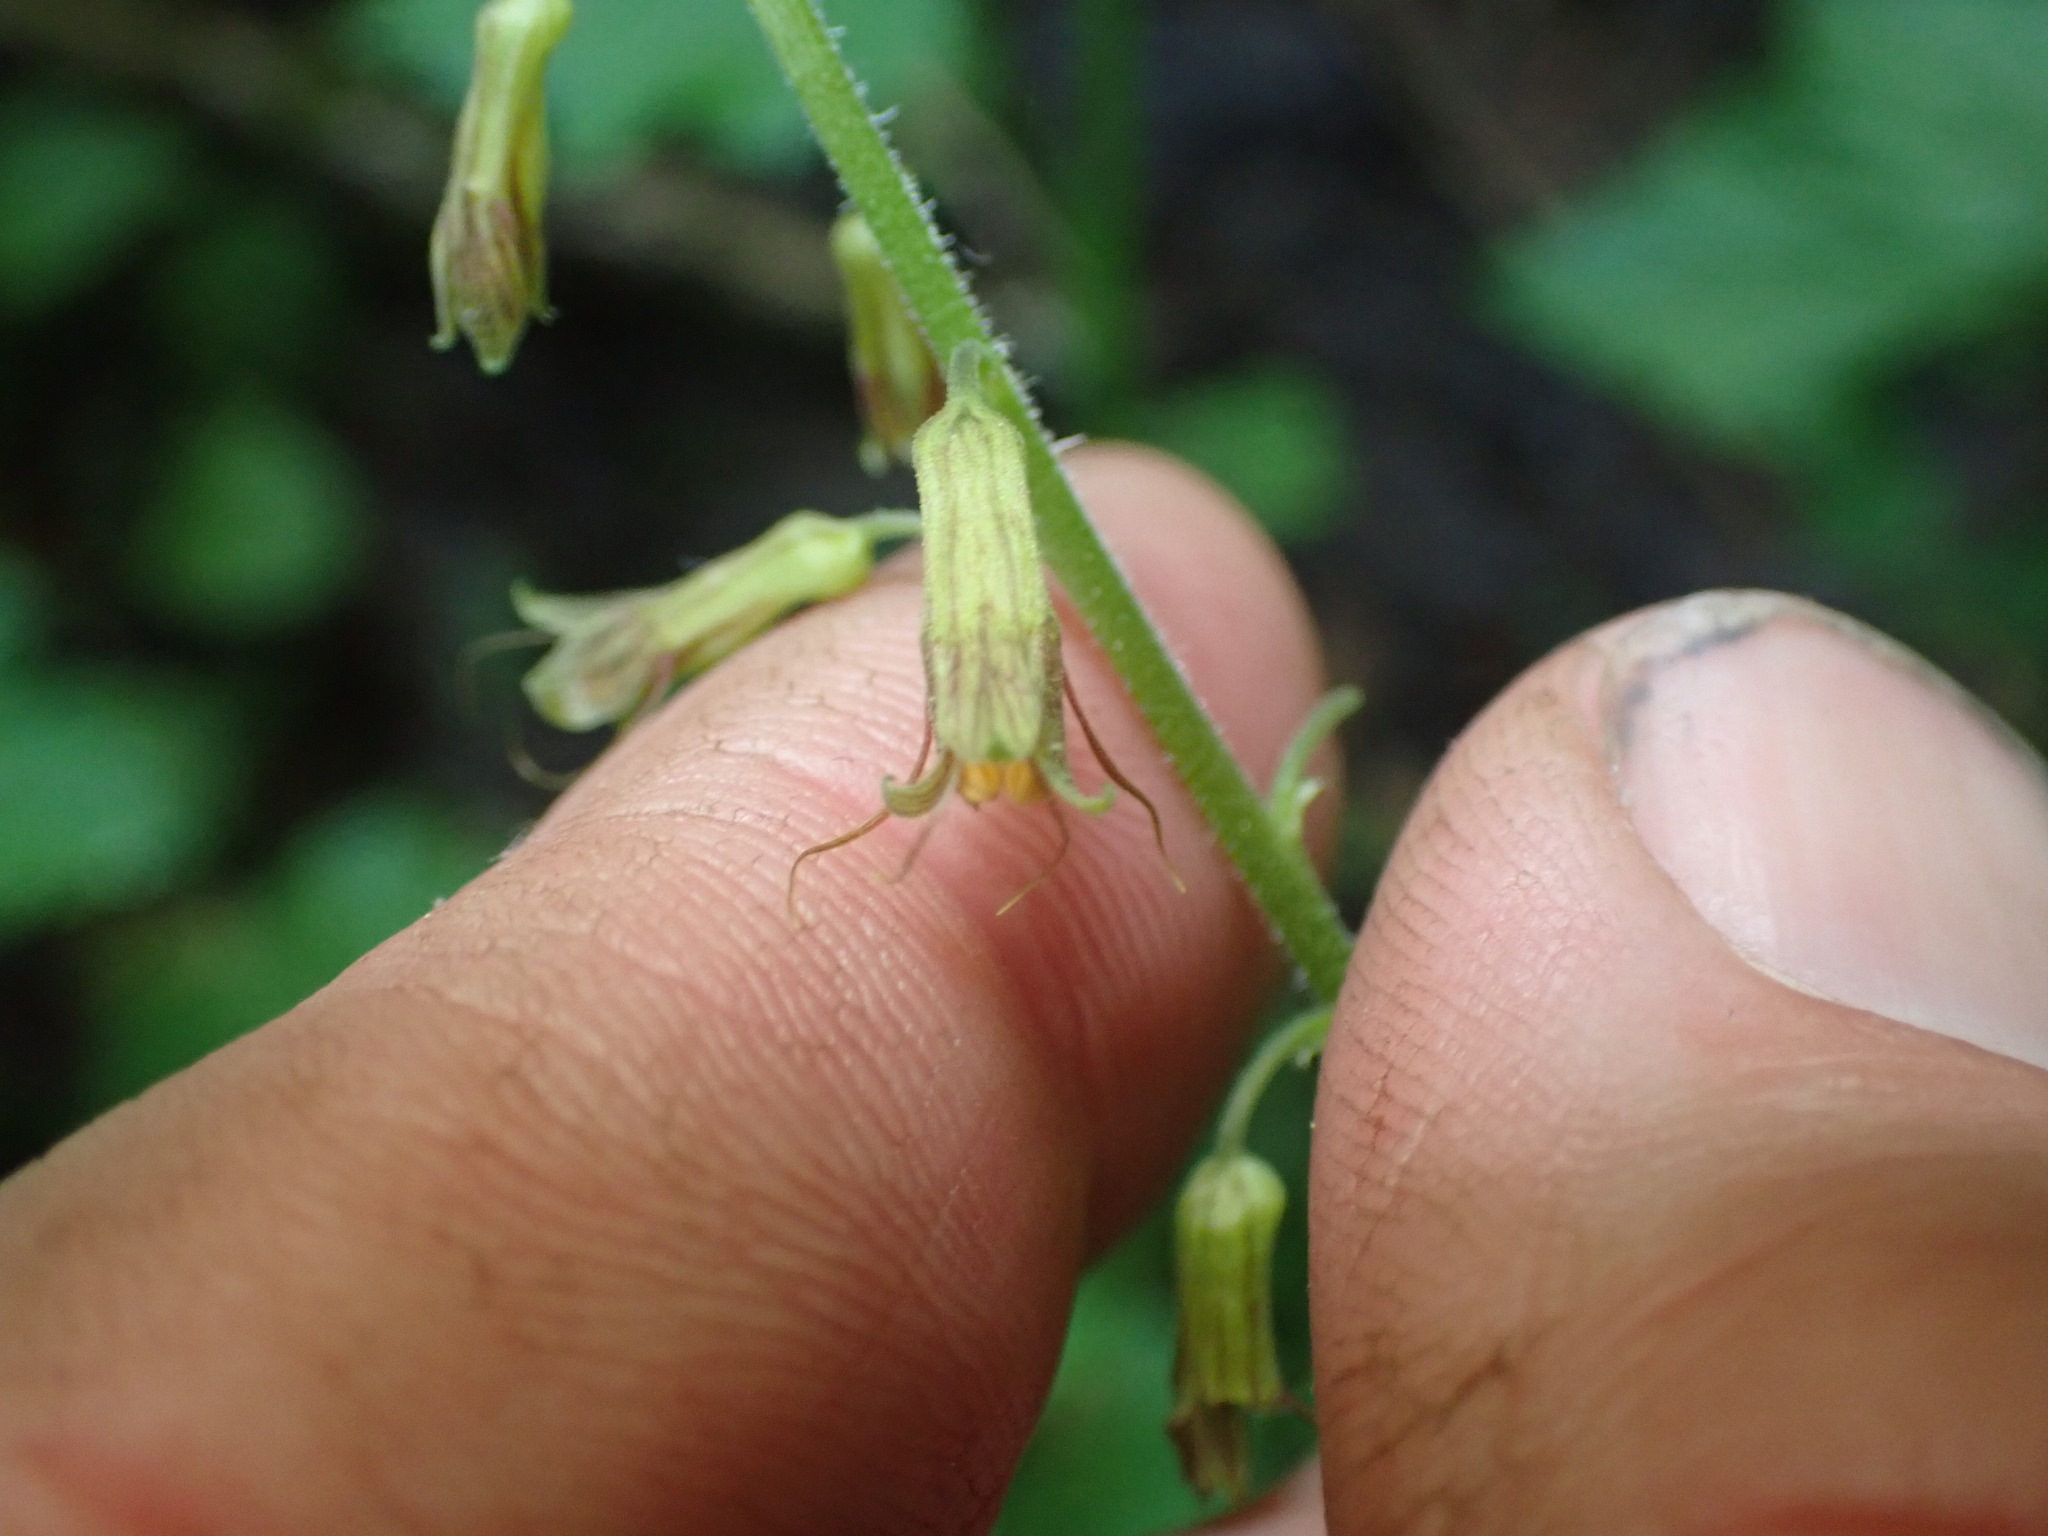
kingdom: Plantae
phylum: Tracheophyta
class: Magnoliopsida
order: Saxifragales
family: Saxifragaceae
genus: Tolmiea
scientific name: Tolmiea menziesii
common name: Pick-a-back-plant
